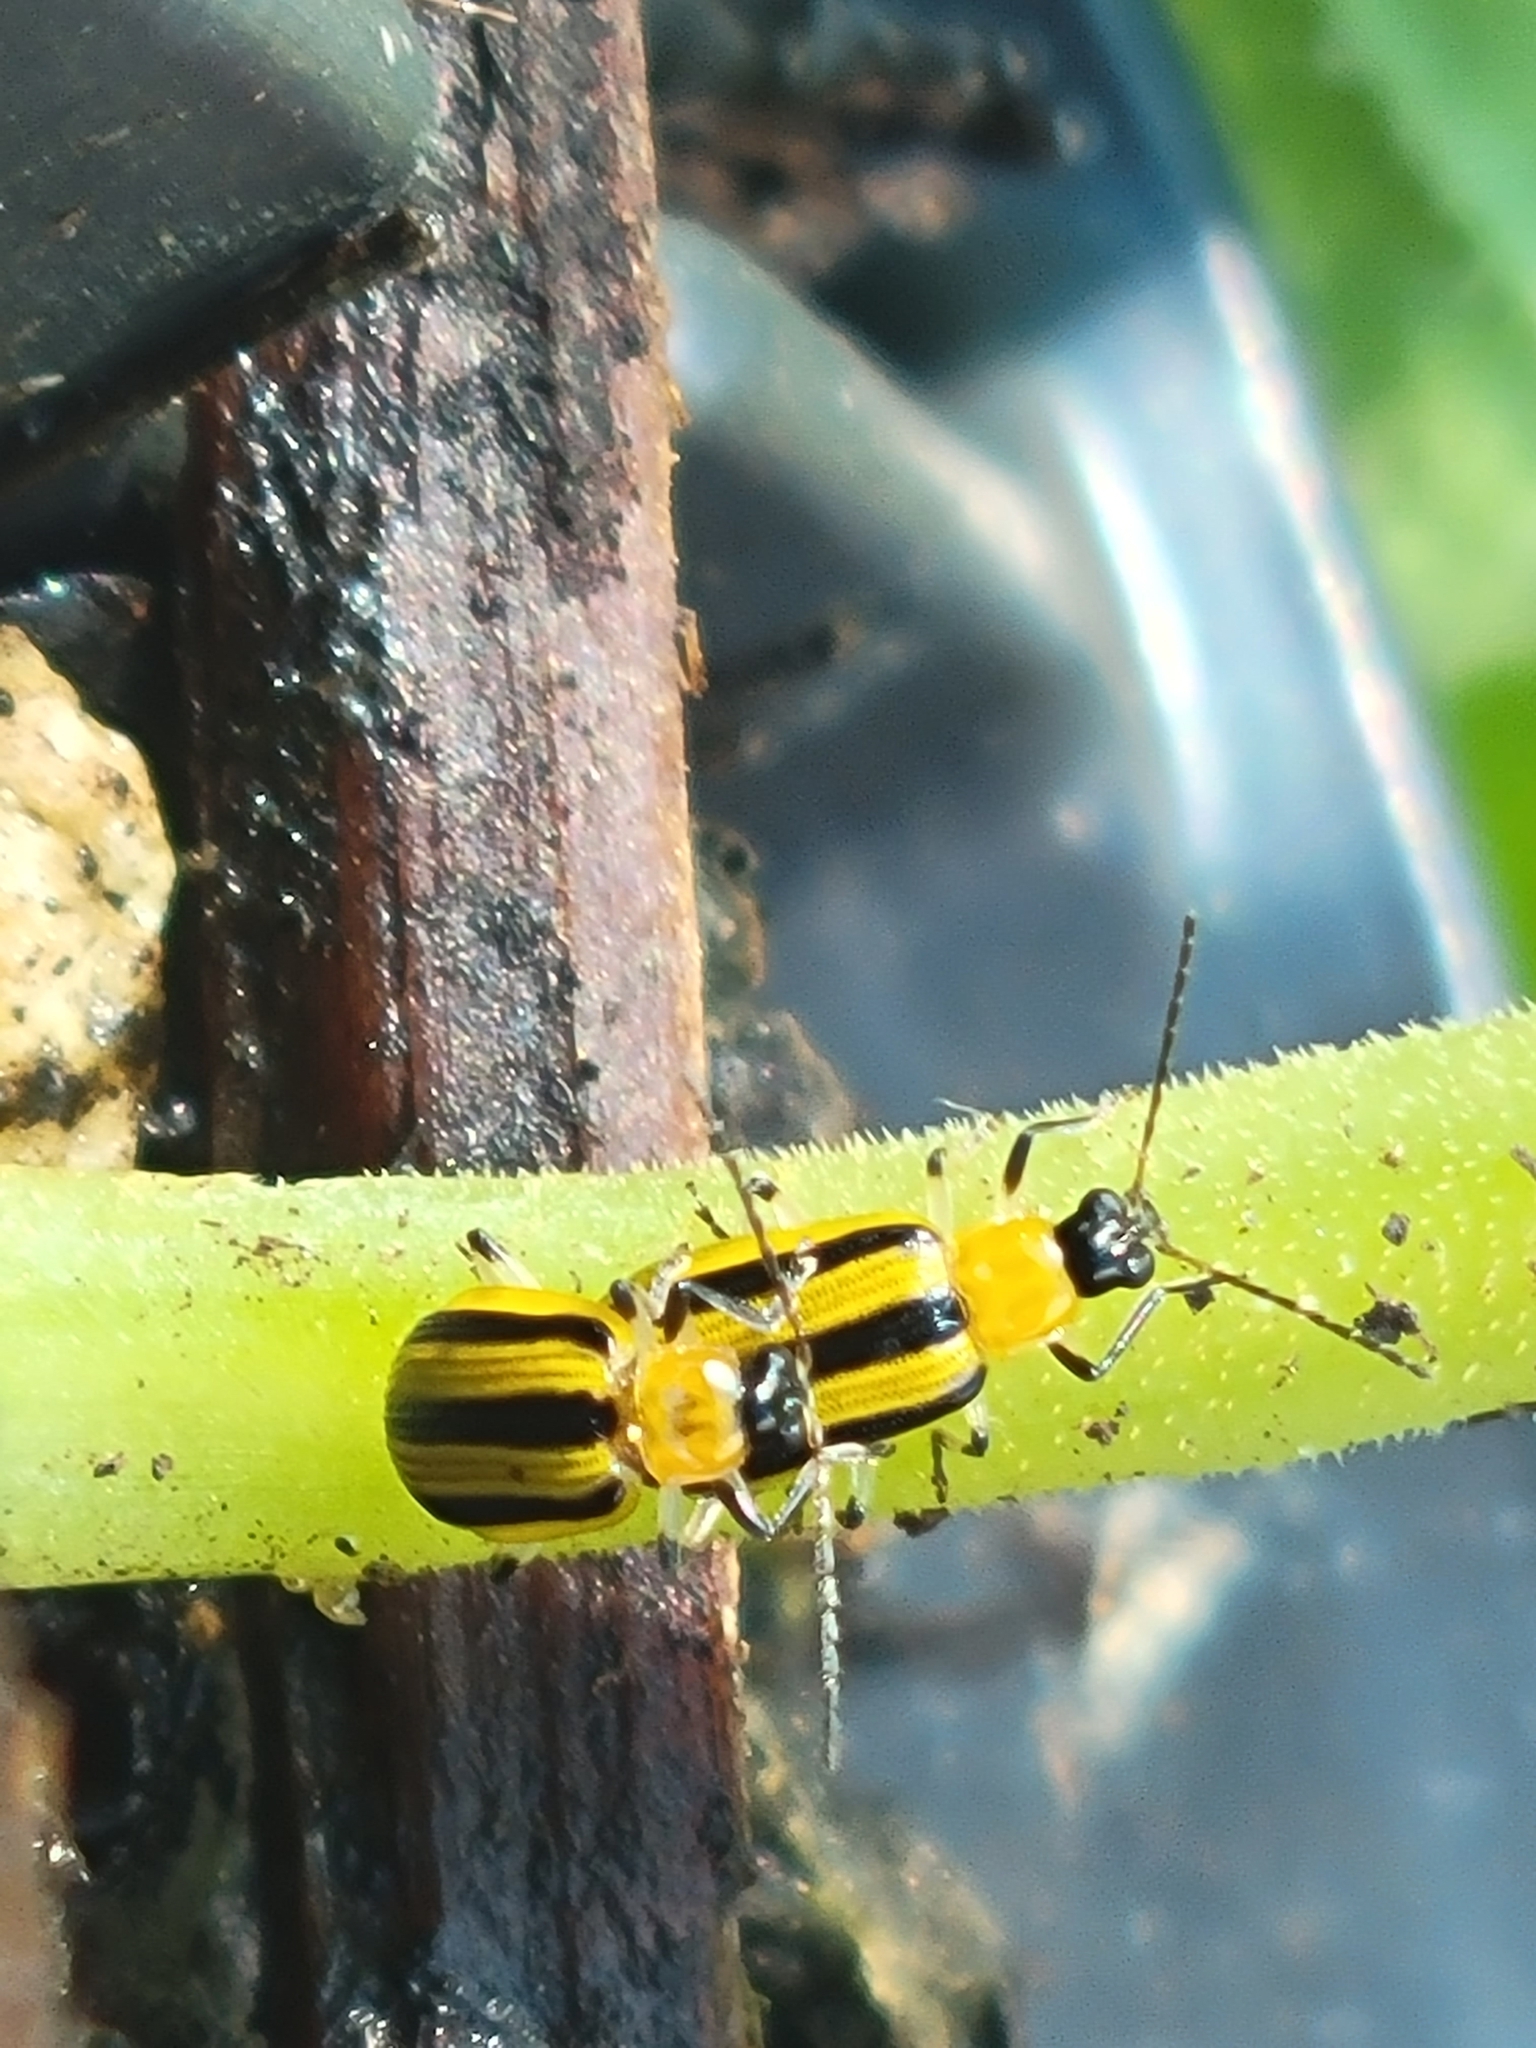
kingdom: Animalia
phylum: Arthropoda
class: Insecta
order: Coleoptera
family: Chrysomelidae
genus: Acalymma
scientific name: Acalymma vittatum
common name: Striped cucumber beetle
